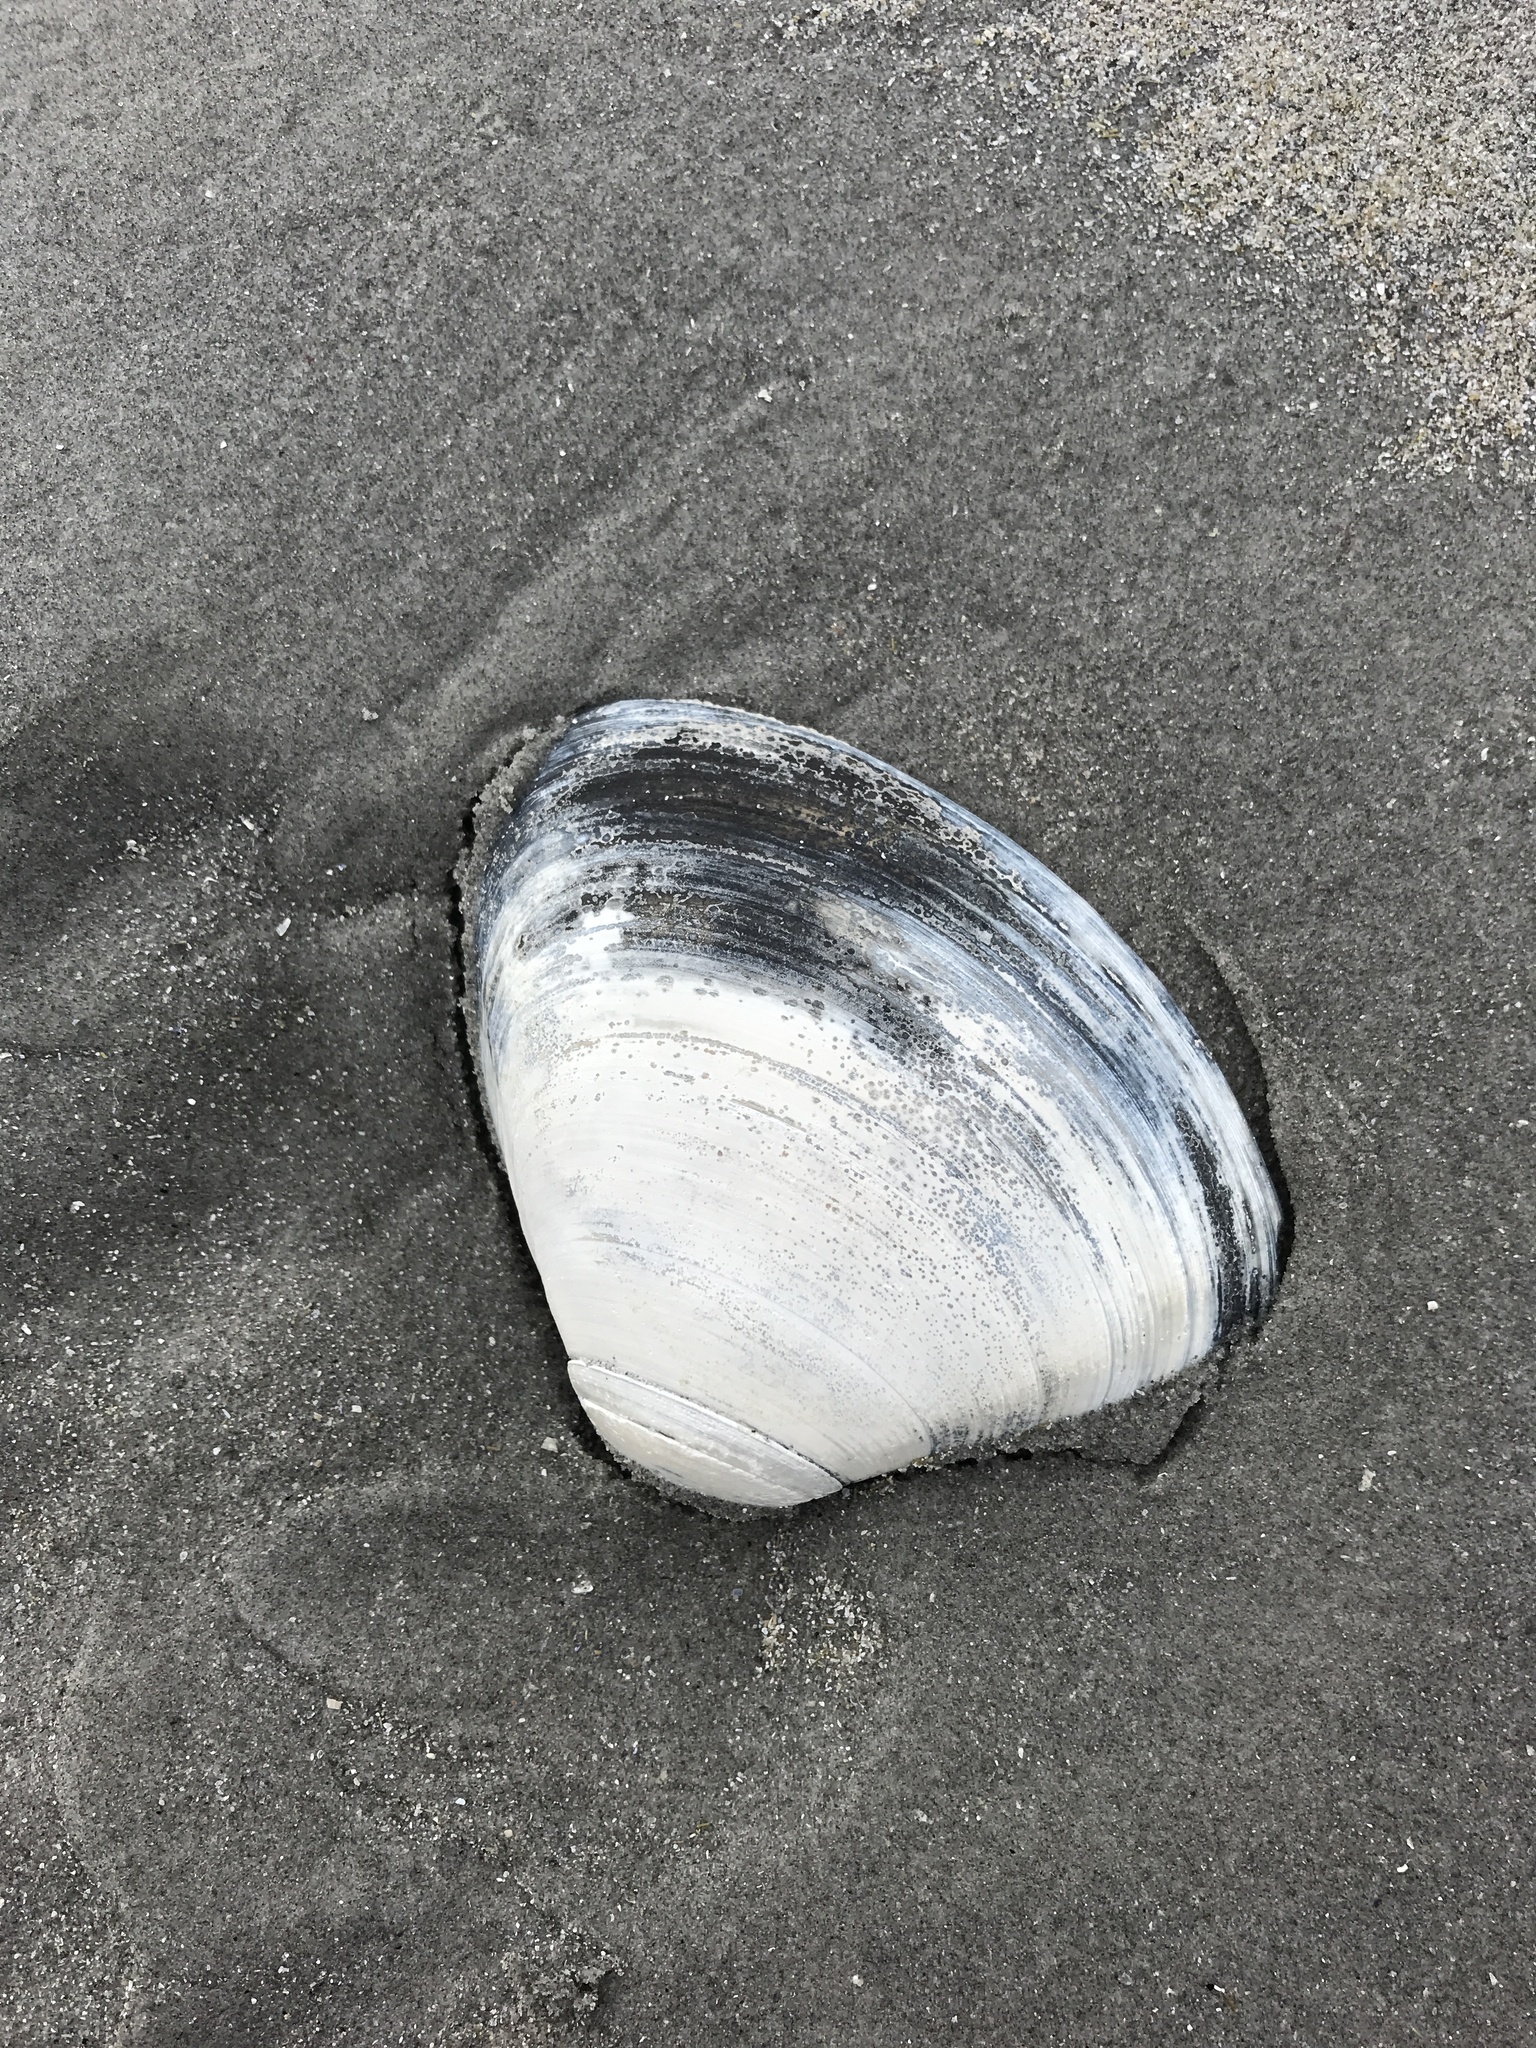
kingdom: Animalia
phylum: Mollusca
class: Bivalvia
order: Venerida
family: Mactridae
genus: Spisula
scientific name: Spisula solidissima
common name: Atlantic surf clam
